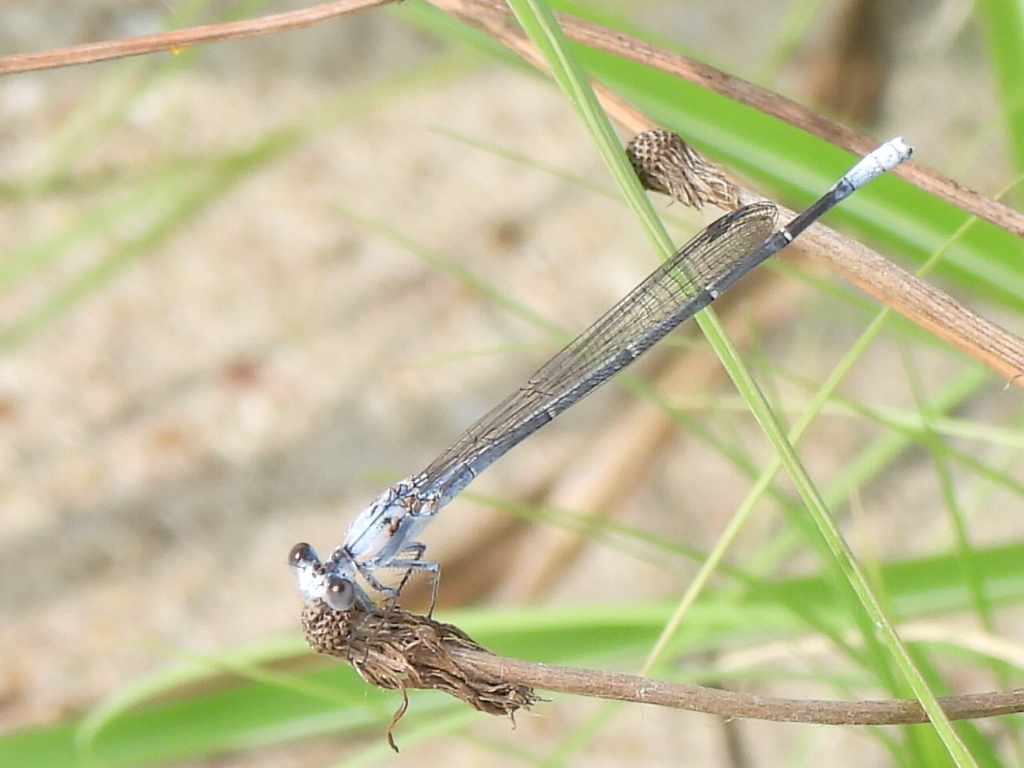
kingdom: Animalia
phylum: Arthropoda
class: Insecta
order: Odonata
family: Coenagrionidae
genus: Argia
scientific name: Argia moesta
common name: Powdered dancer
